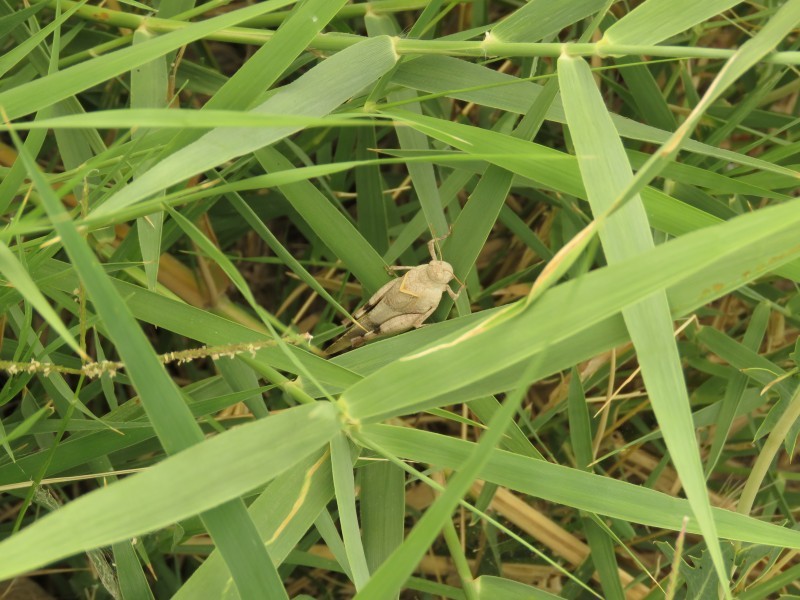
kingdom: Plantae
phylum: Tracheophyta
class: Liliopsida
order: Poales
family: Poaceae
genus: Phragmites
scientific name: Phragmites australis
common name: Common reed
